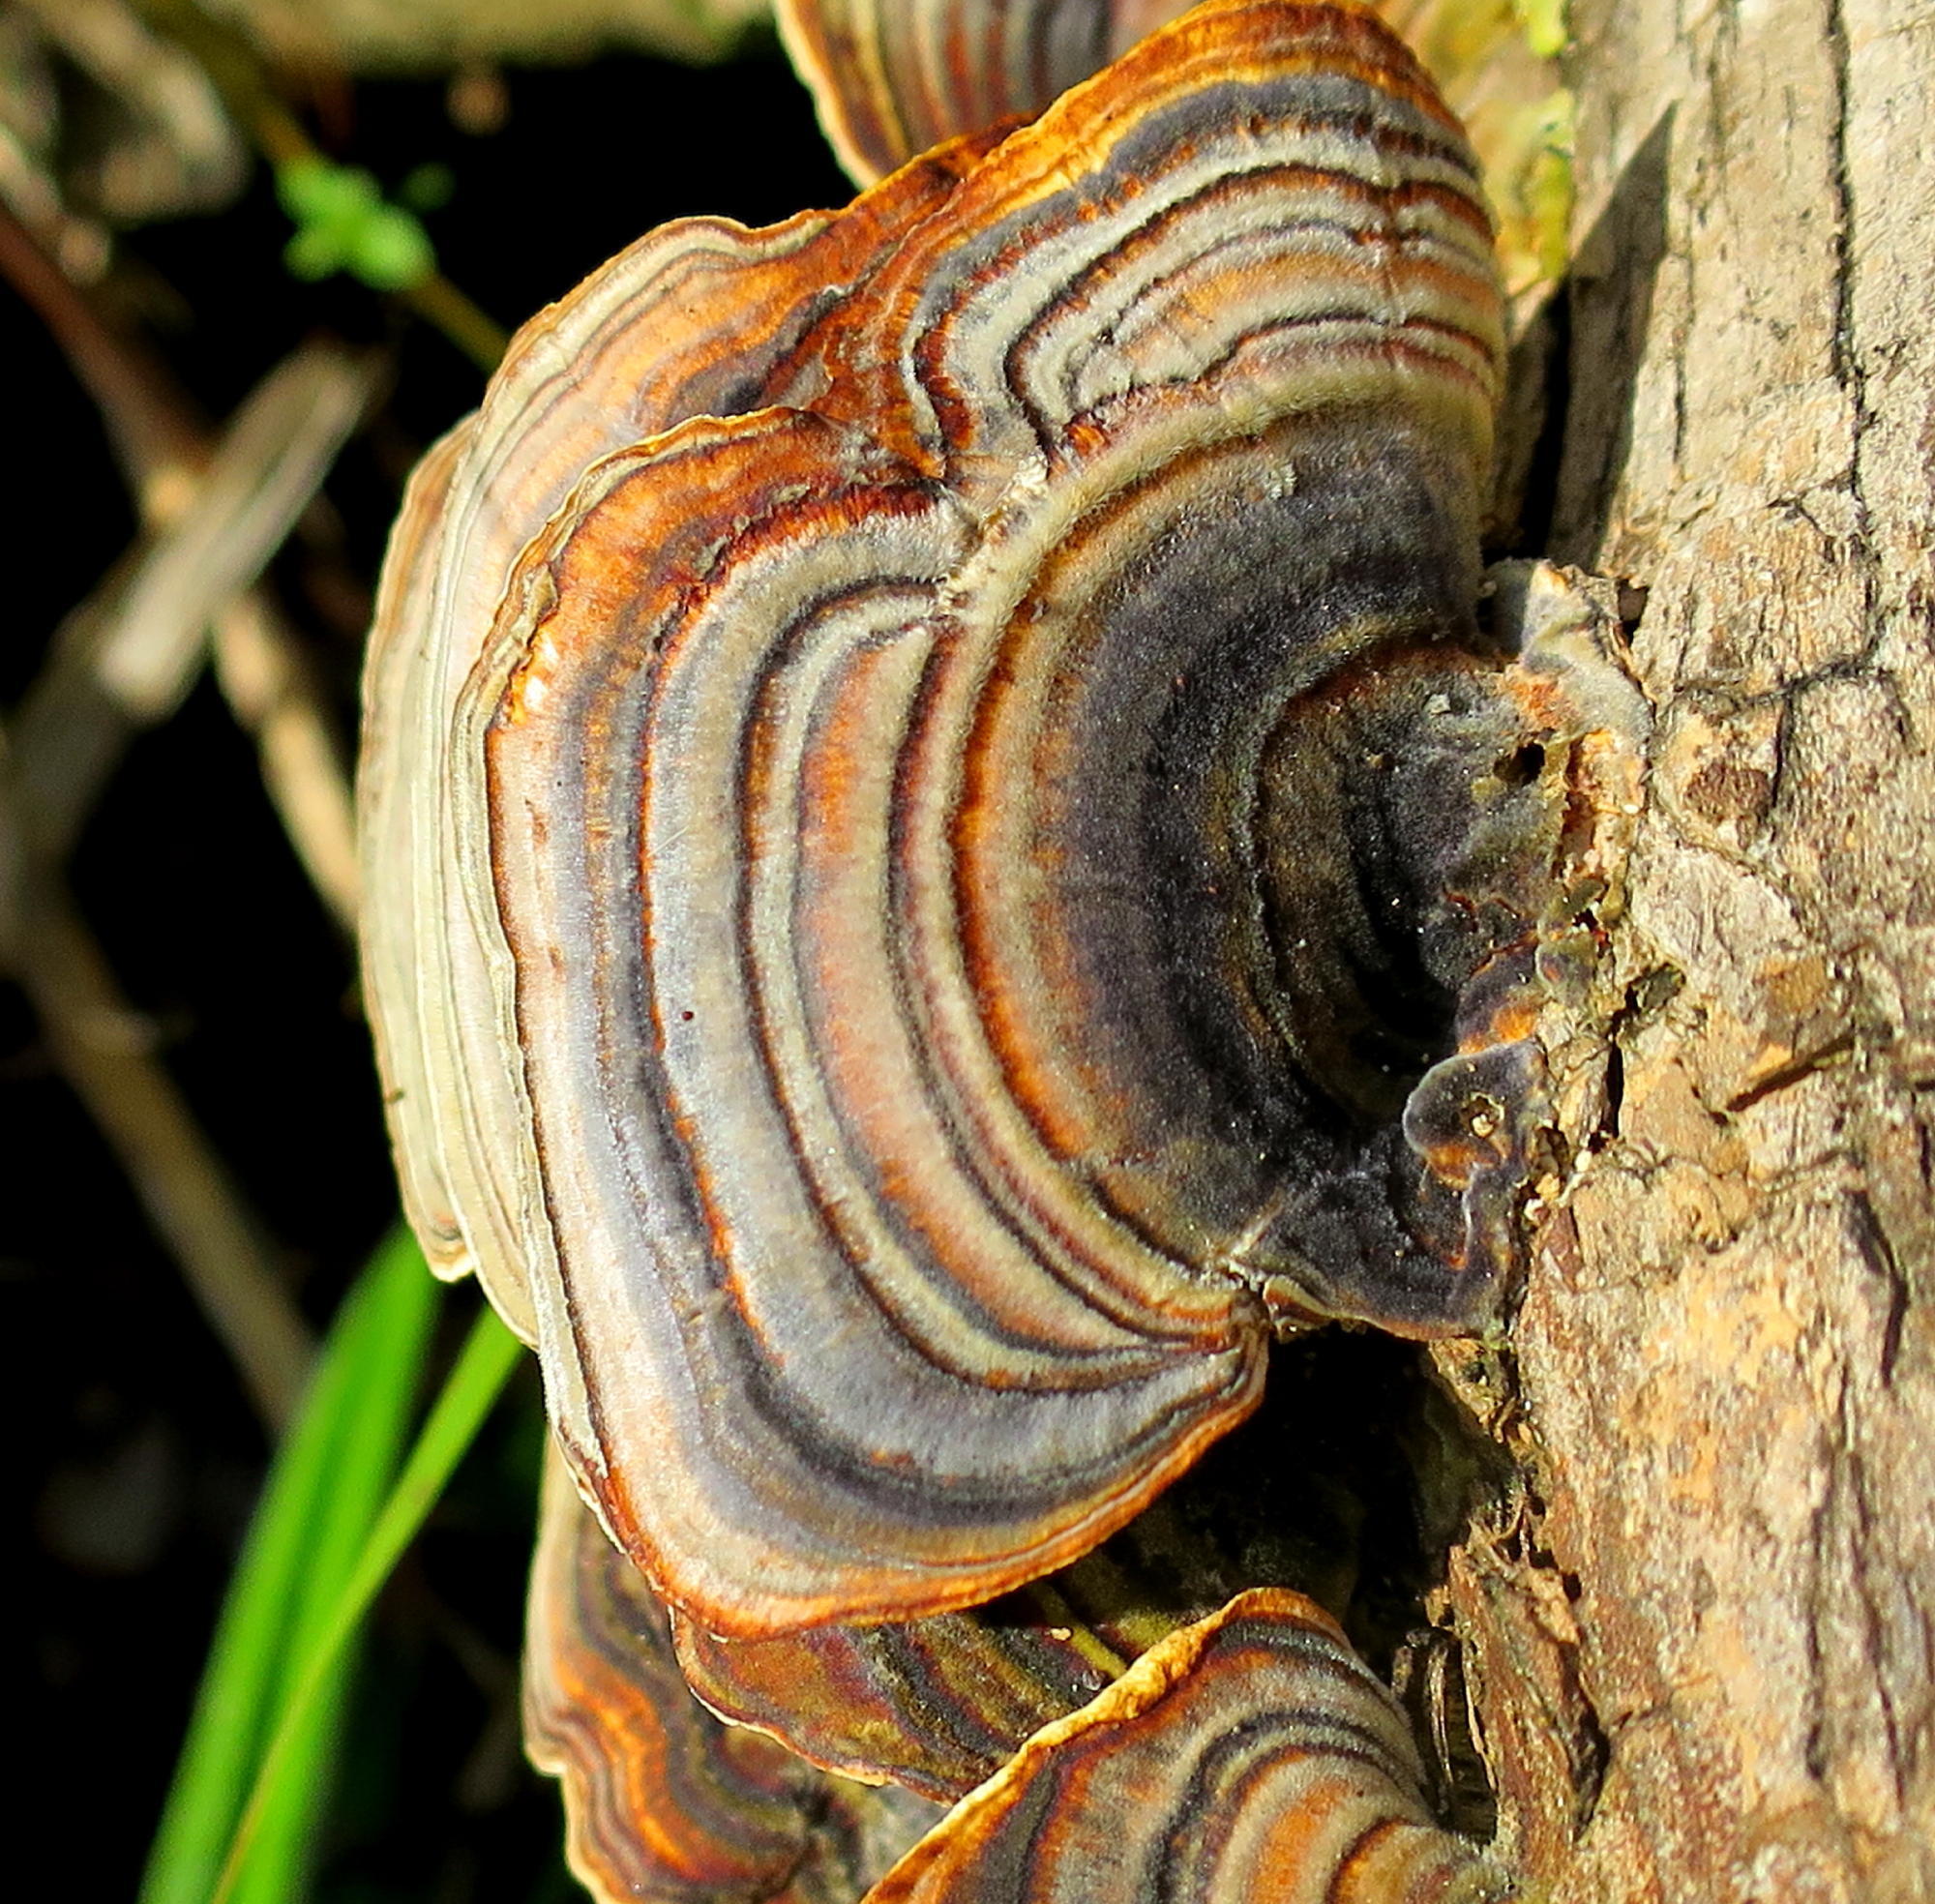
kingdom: Fungi
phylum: Basidiomycota
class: Agaricomycetes
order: Polyporales
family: Polyporaceae
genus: Trametes
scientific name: Trametes versicolor
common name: Turkeytail
